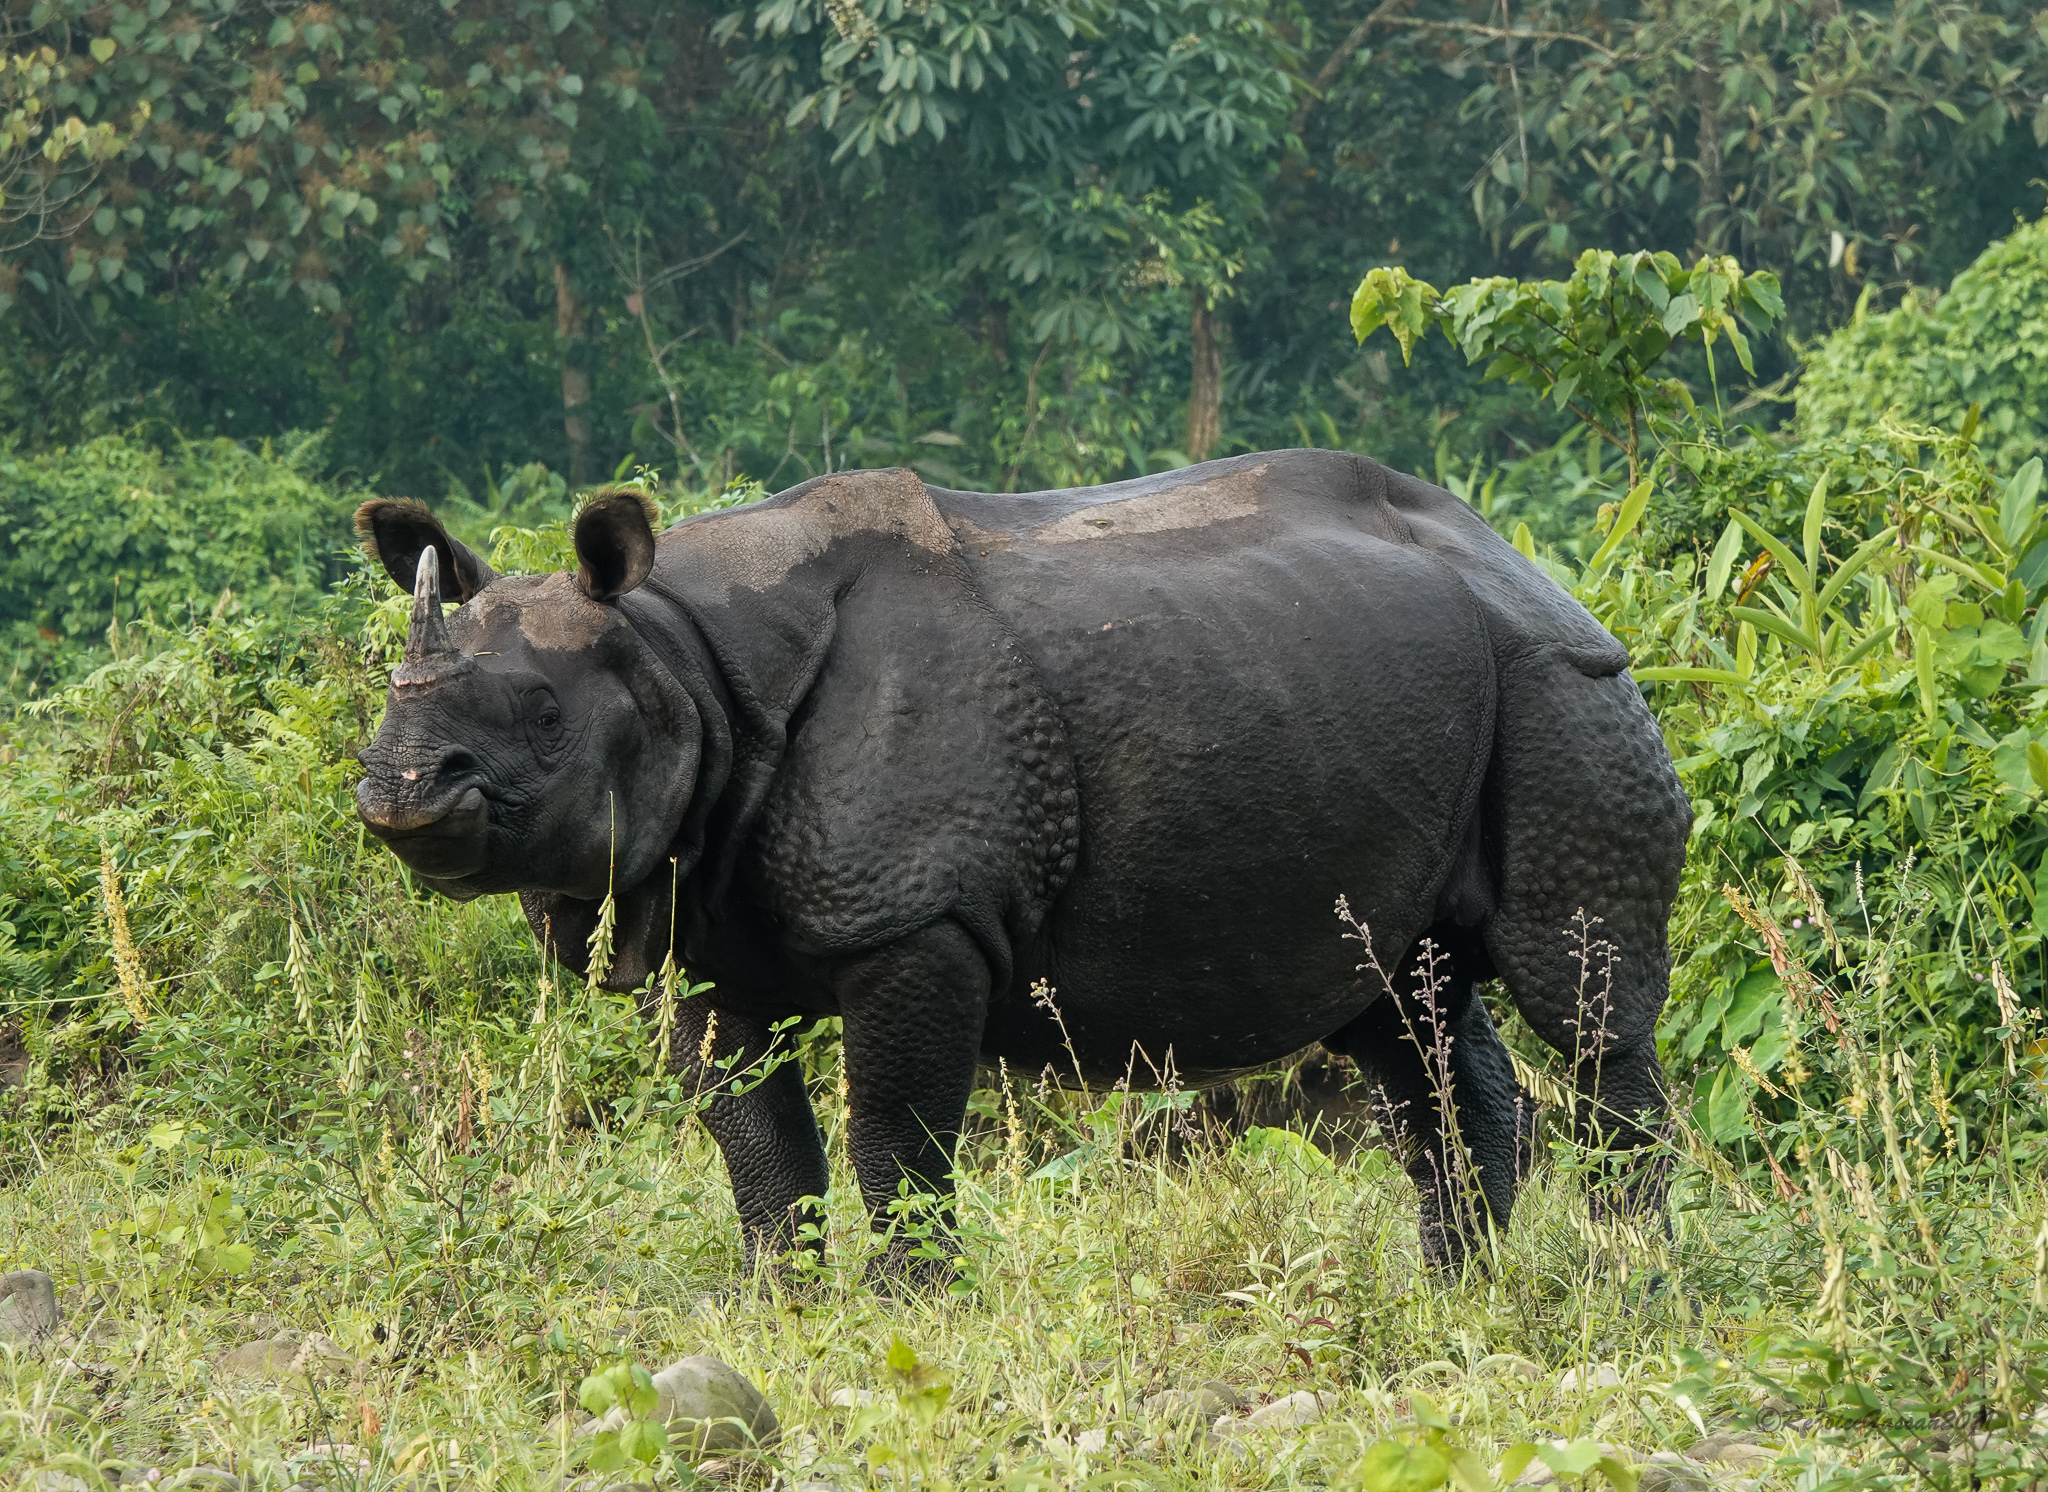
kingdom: Animalia
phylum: Chordata
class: Mammalia
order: Perissodactyla
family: Rhinocerotidae
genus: Rhinoceros
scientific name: Rhinoceros unicornis
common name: Indian rhinoceros
